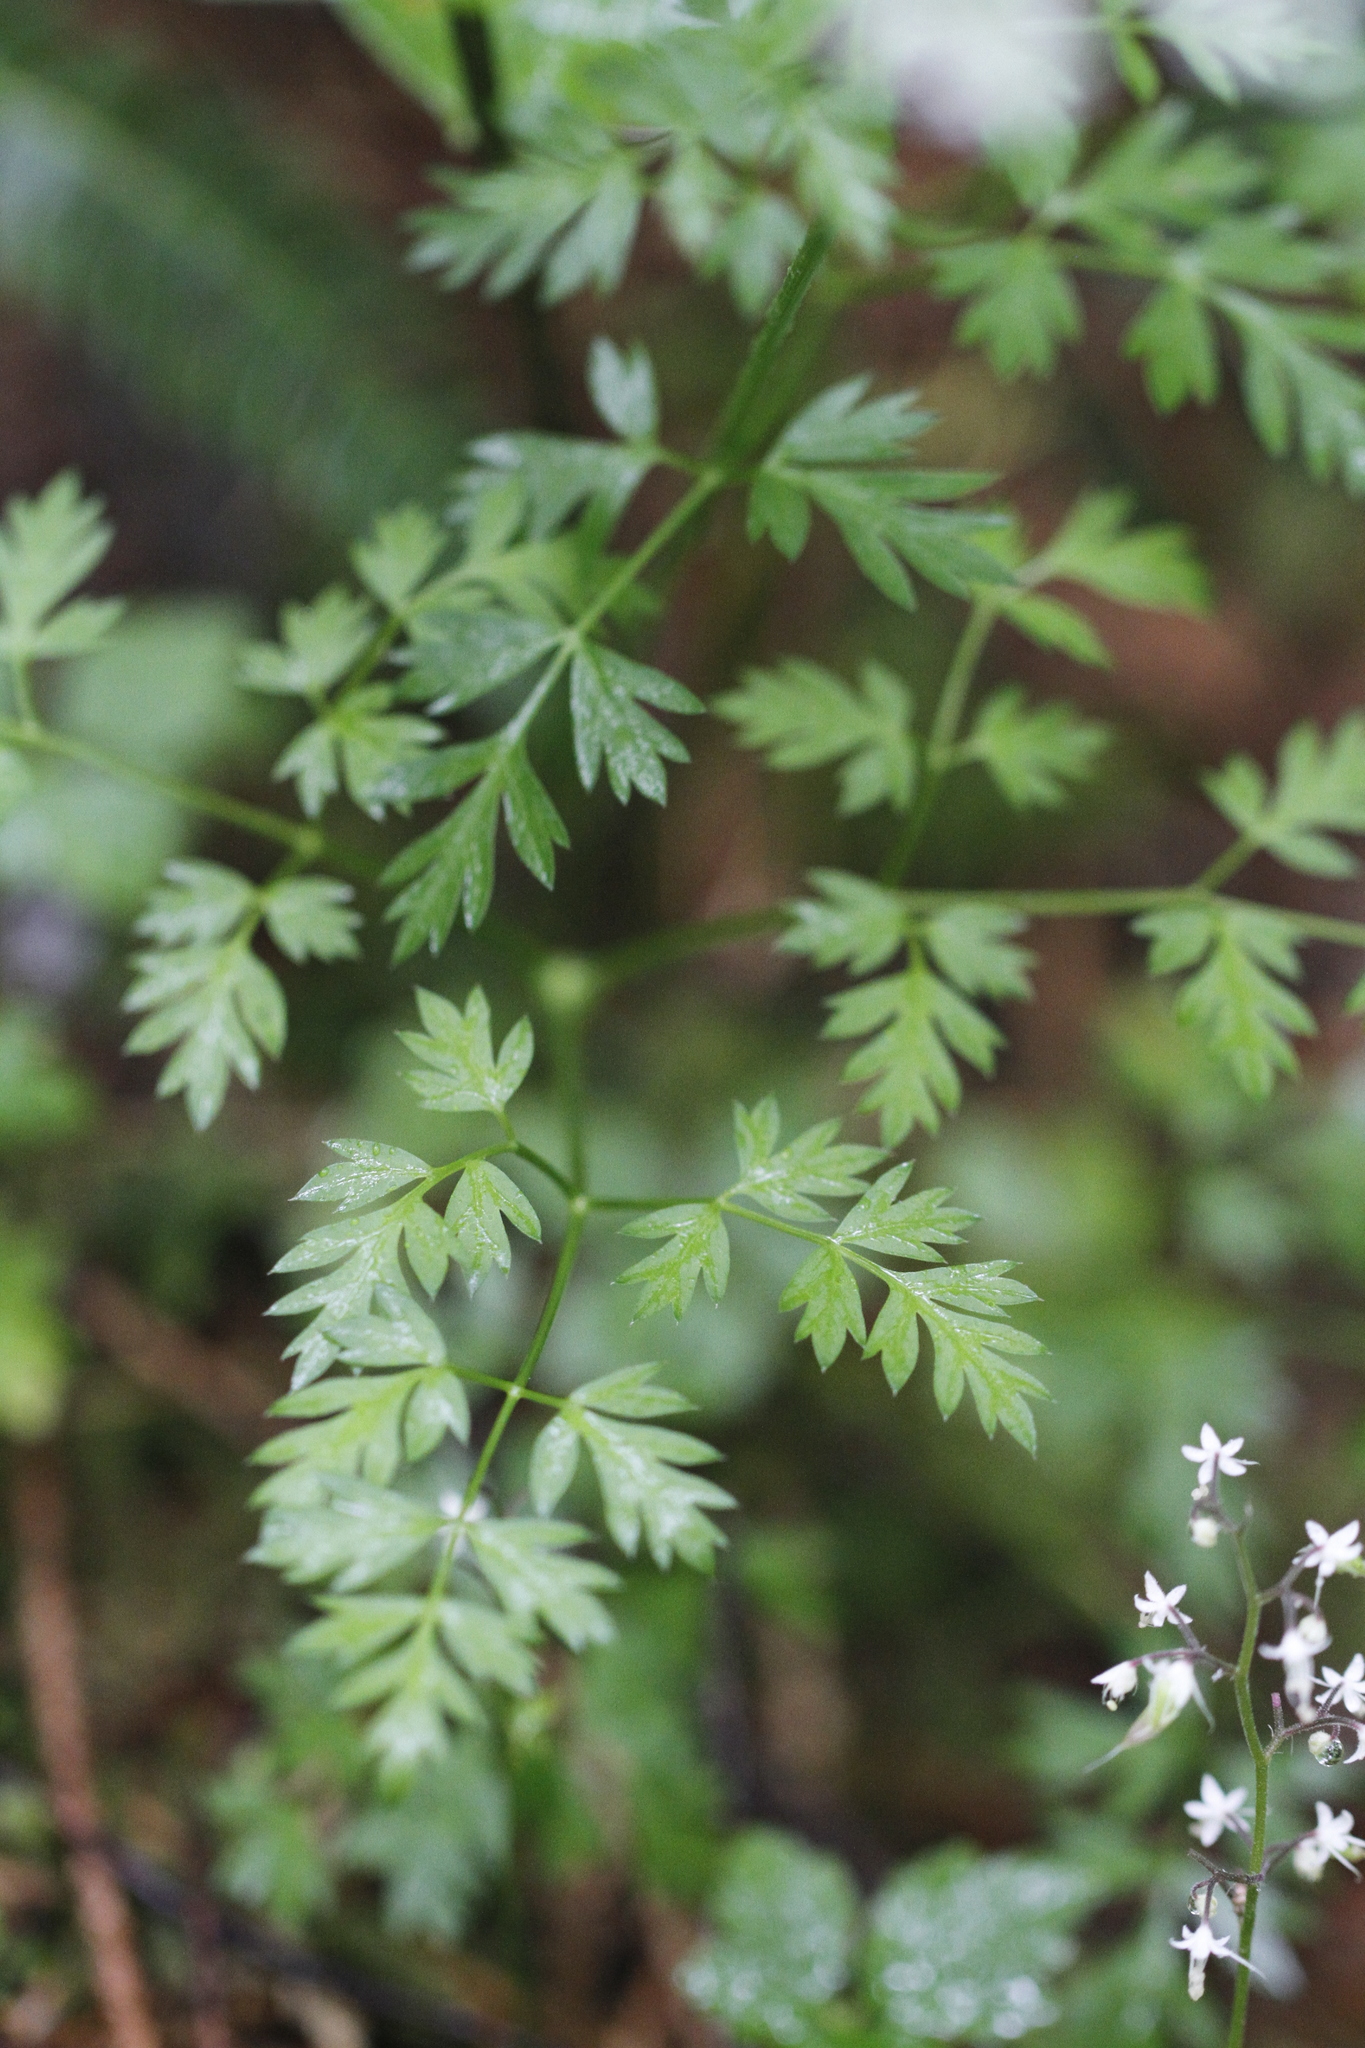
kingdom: Plantae
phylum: Tracheophyta
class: Magnoliopsida
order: Apiales
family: Apiaceae
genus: Ligusticum
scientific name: Ligusticum calderi
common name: Calder's licorice-root
